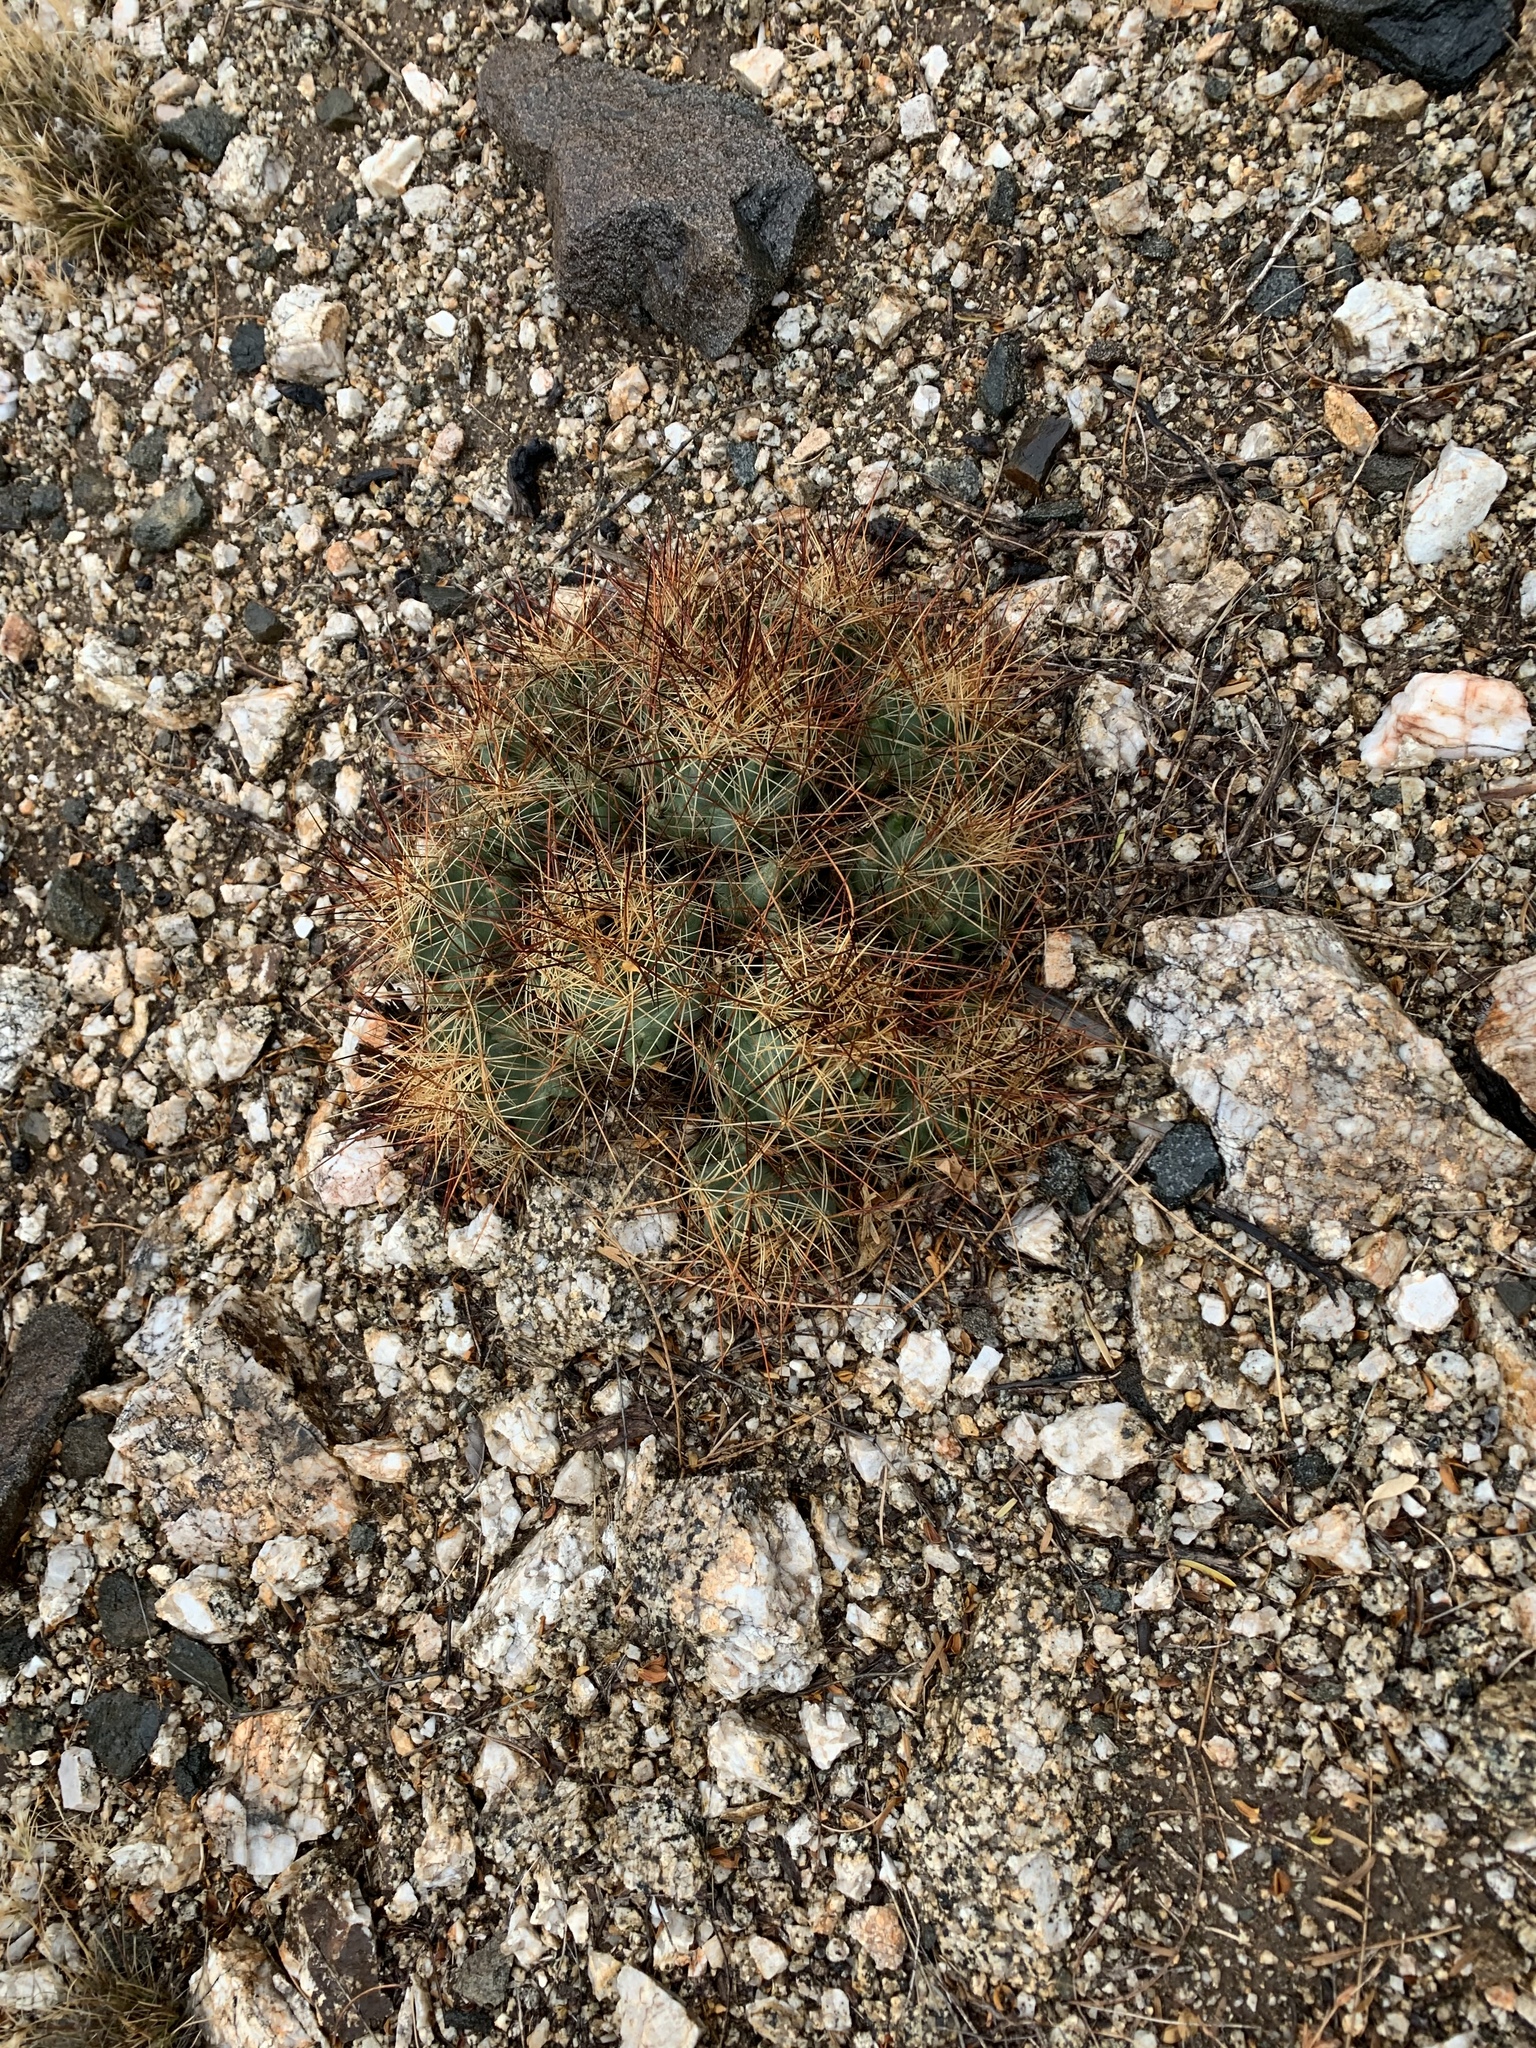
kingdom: Plantae
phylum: Tracheophyta
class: Magnoliopsida
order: Caryophyllales
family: Cactaceae
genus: Coryphantha
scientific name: Coryphantha macromeris
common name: Nipple beehive cactus
